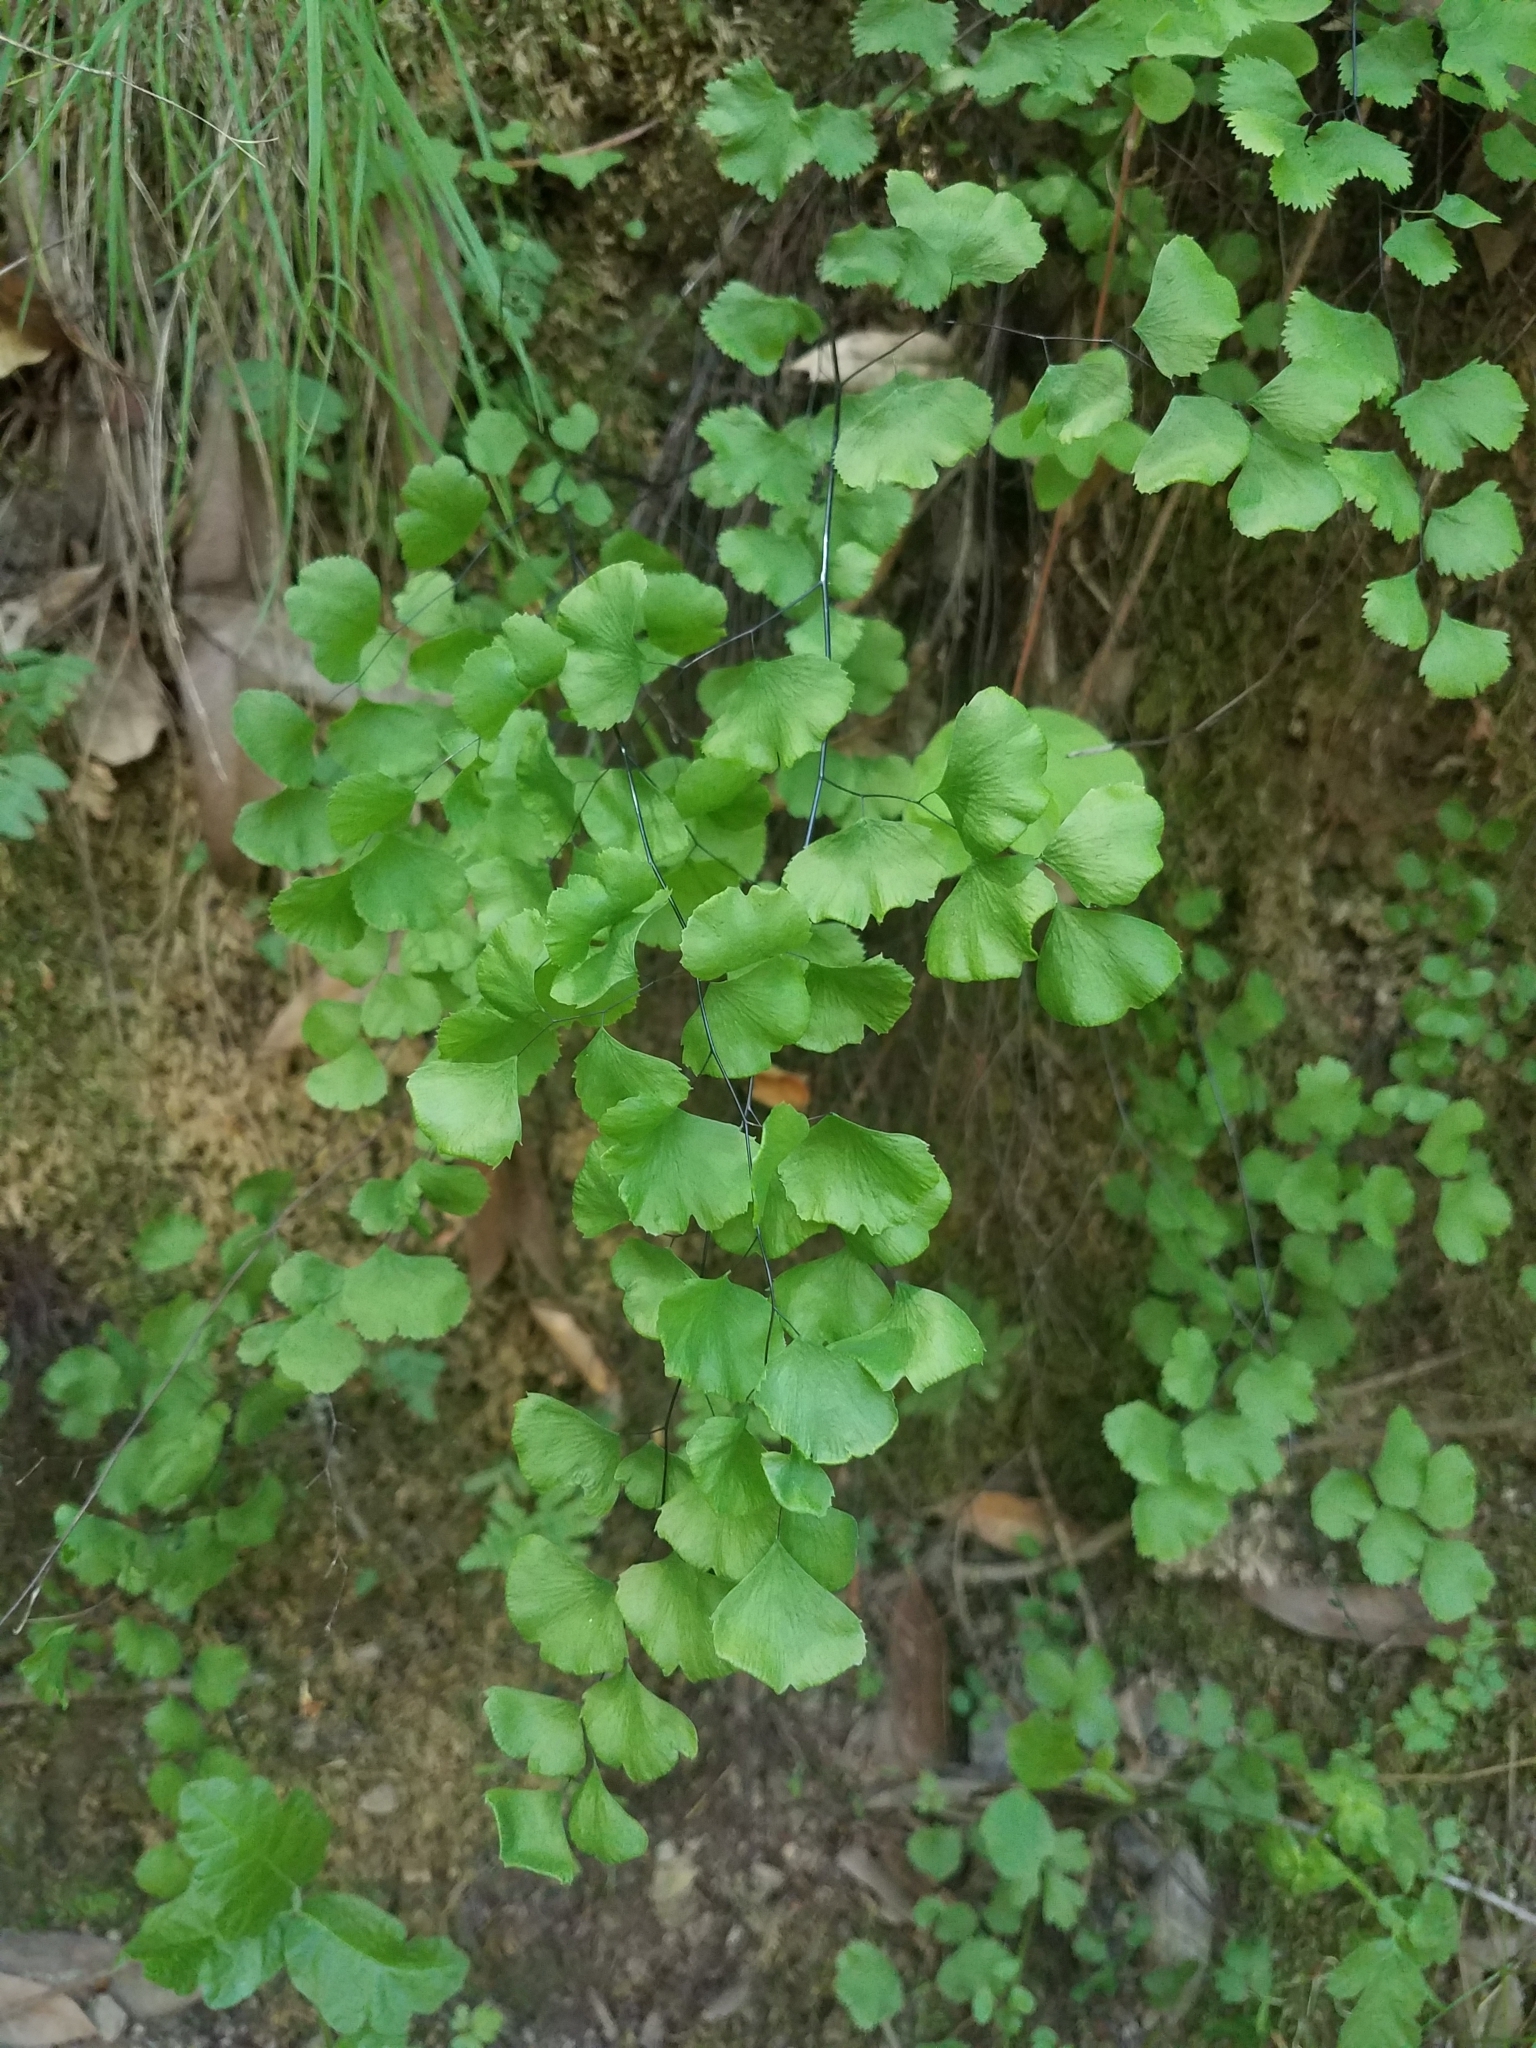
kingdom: Plantae
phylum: Tracheophyta
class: Polypodiopsida
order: Polypodiales
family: Pteridaceae
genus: Adiantum
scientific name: Adiantum jordanii
